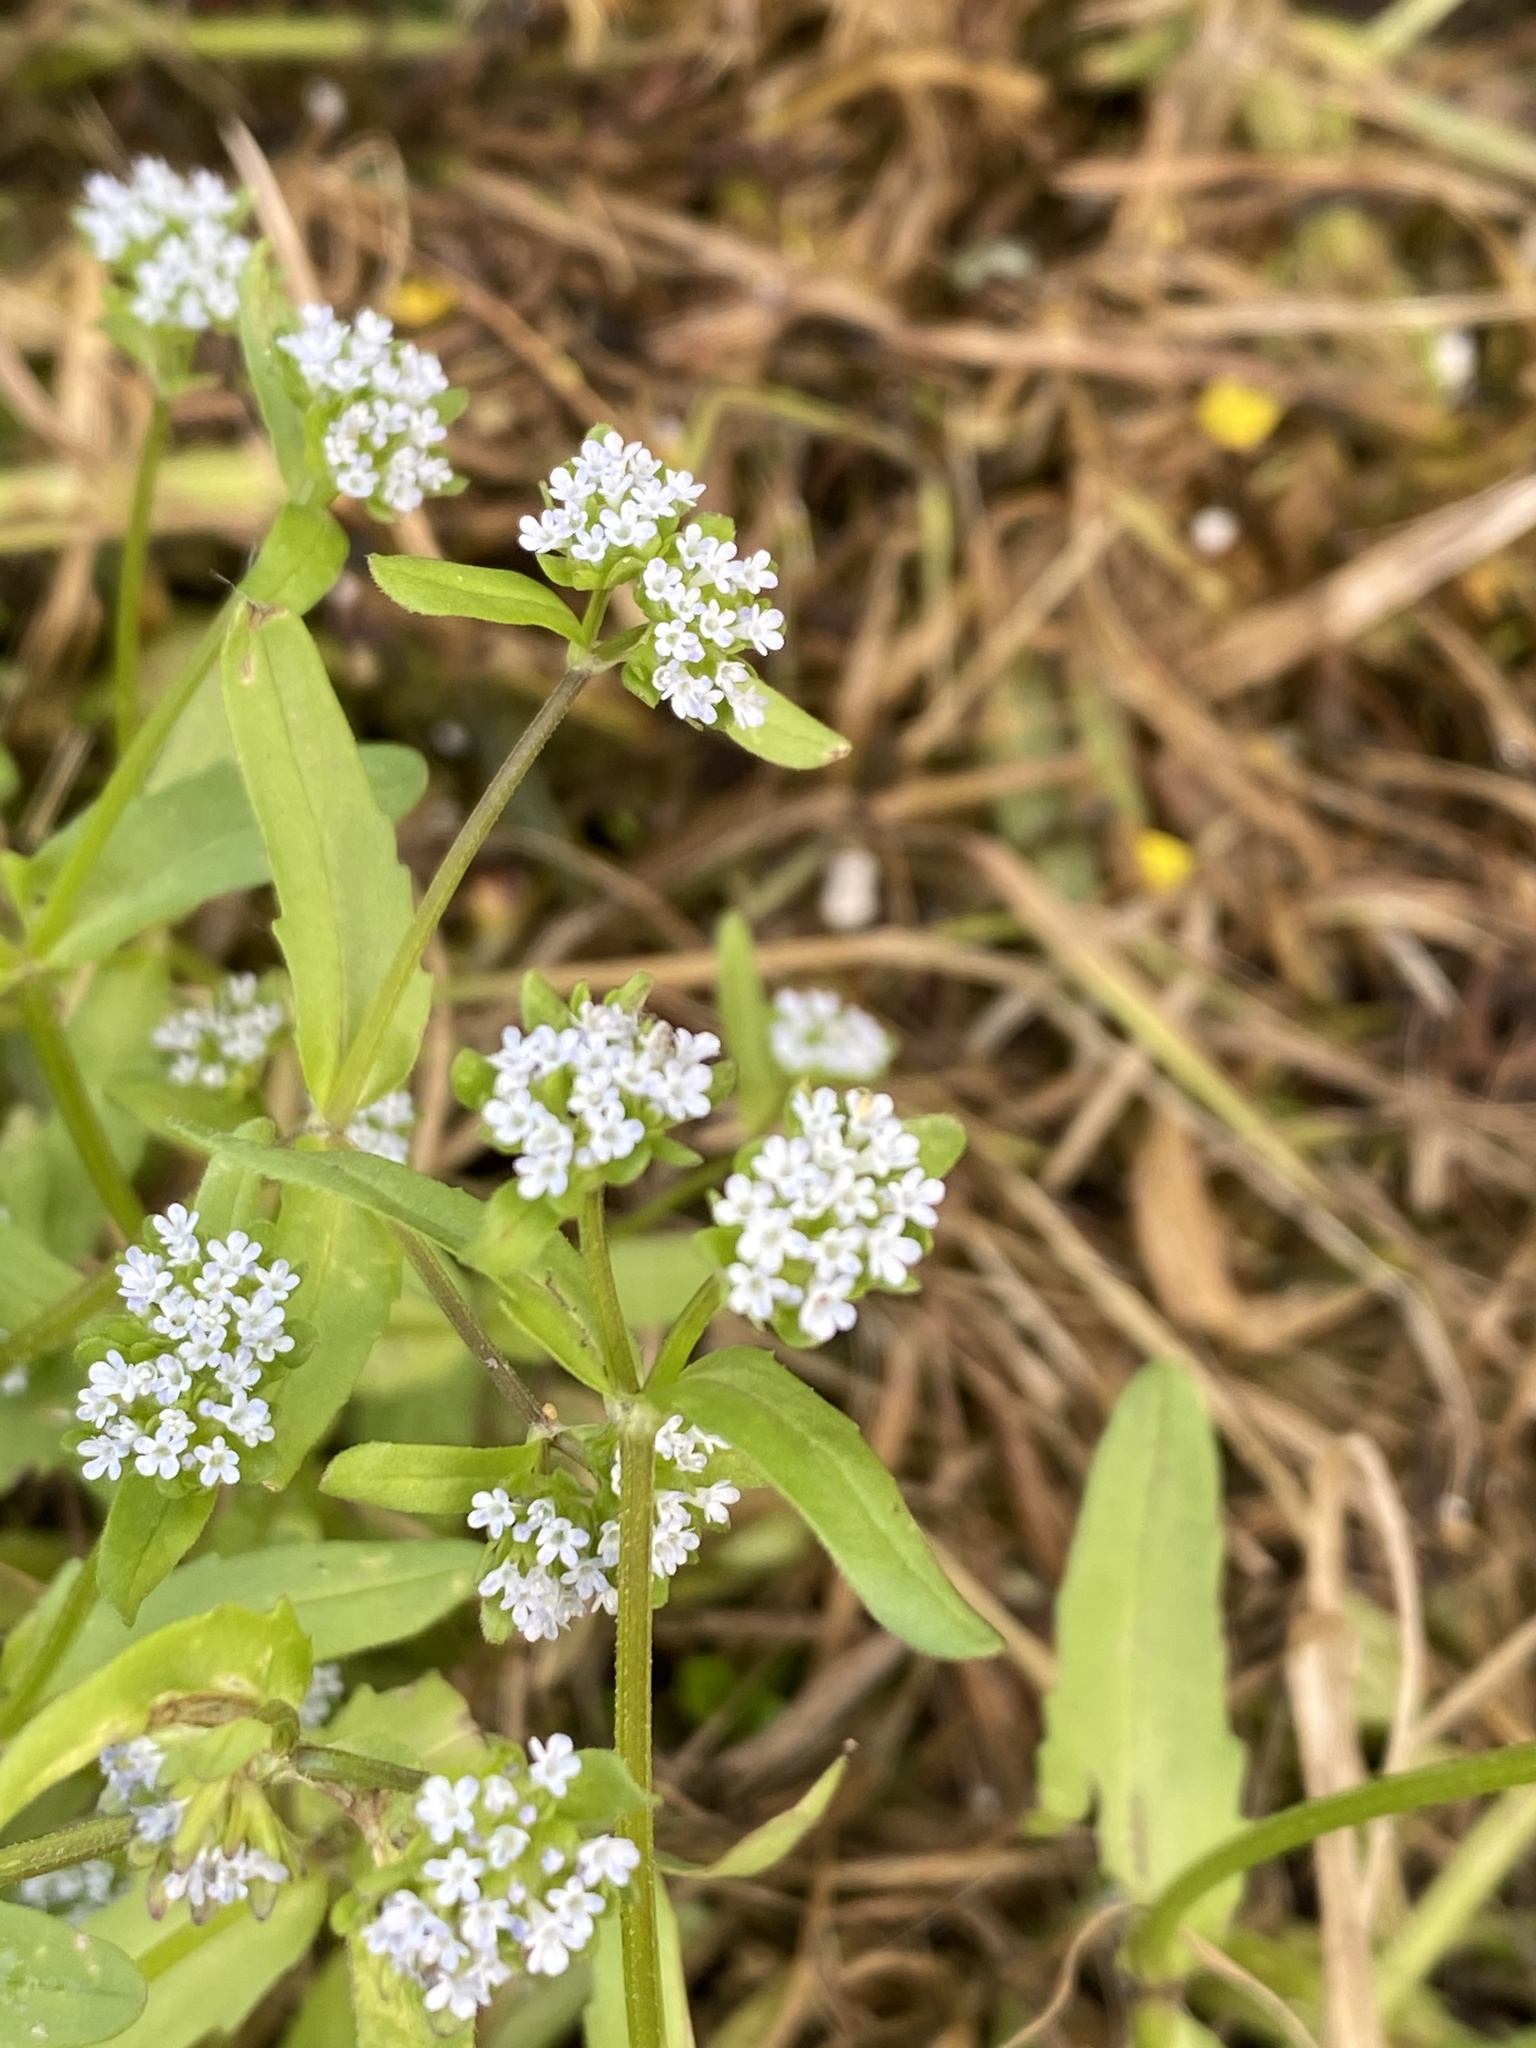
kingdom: Plantae
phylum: Tracheophyta
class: Magnoliopsida
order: Dipsacales
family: Caprifoliaceae
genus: Valerianella
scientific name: Valerianella locusta
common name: Common cornsalad
